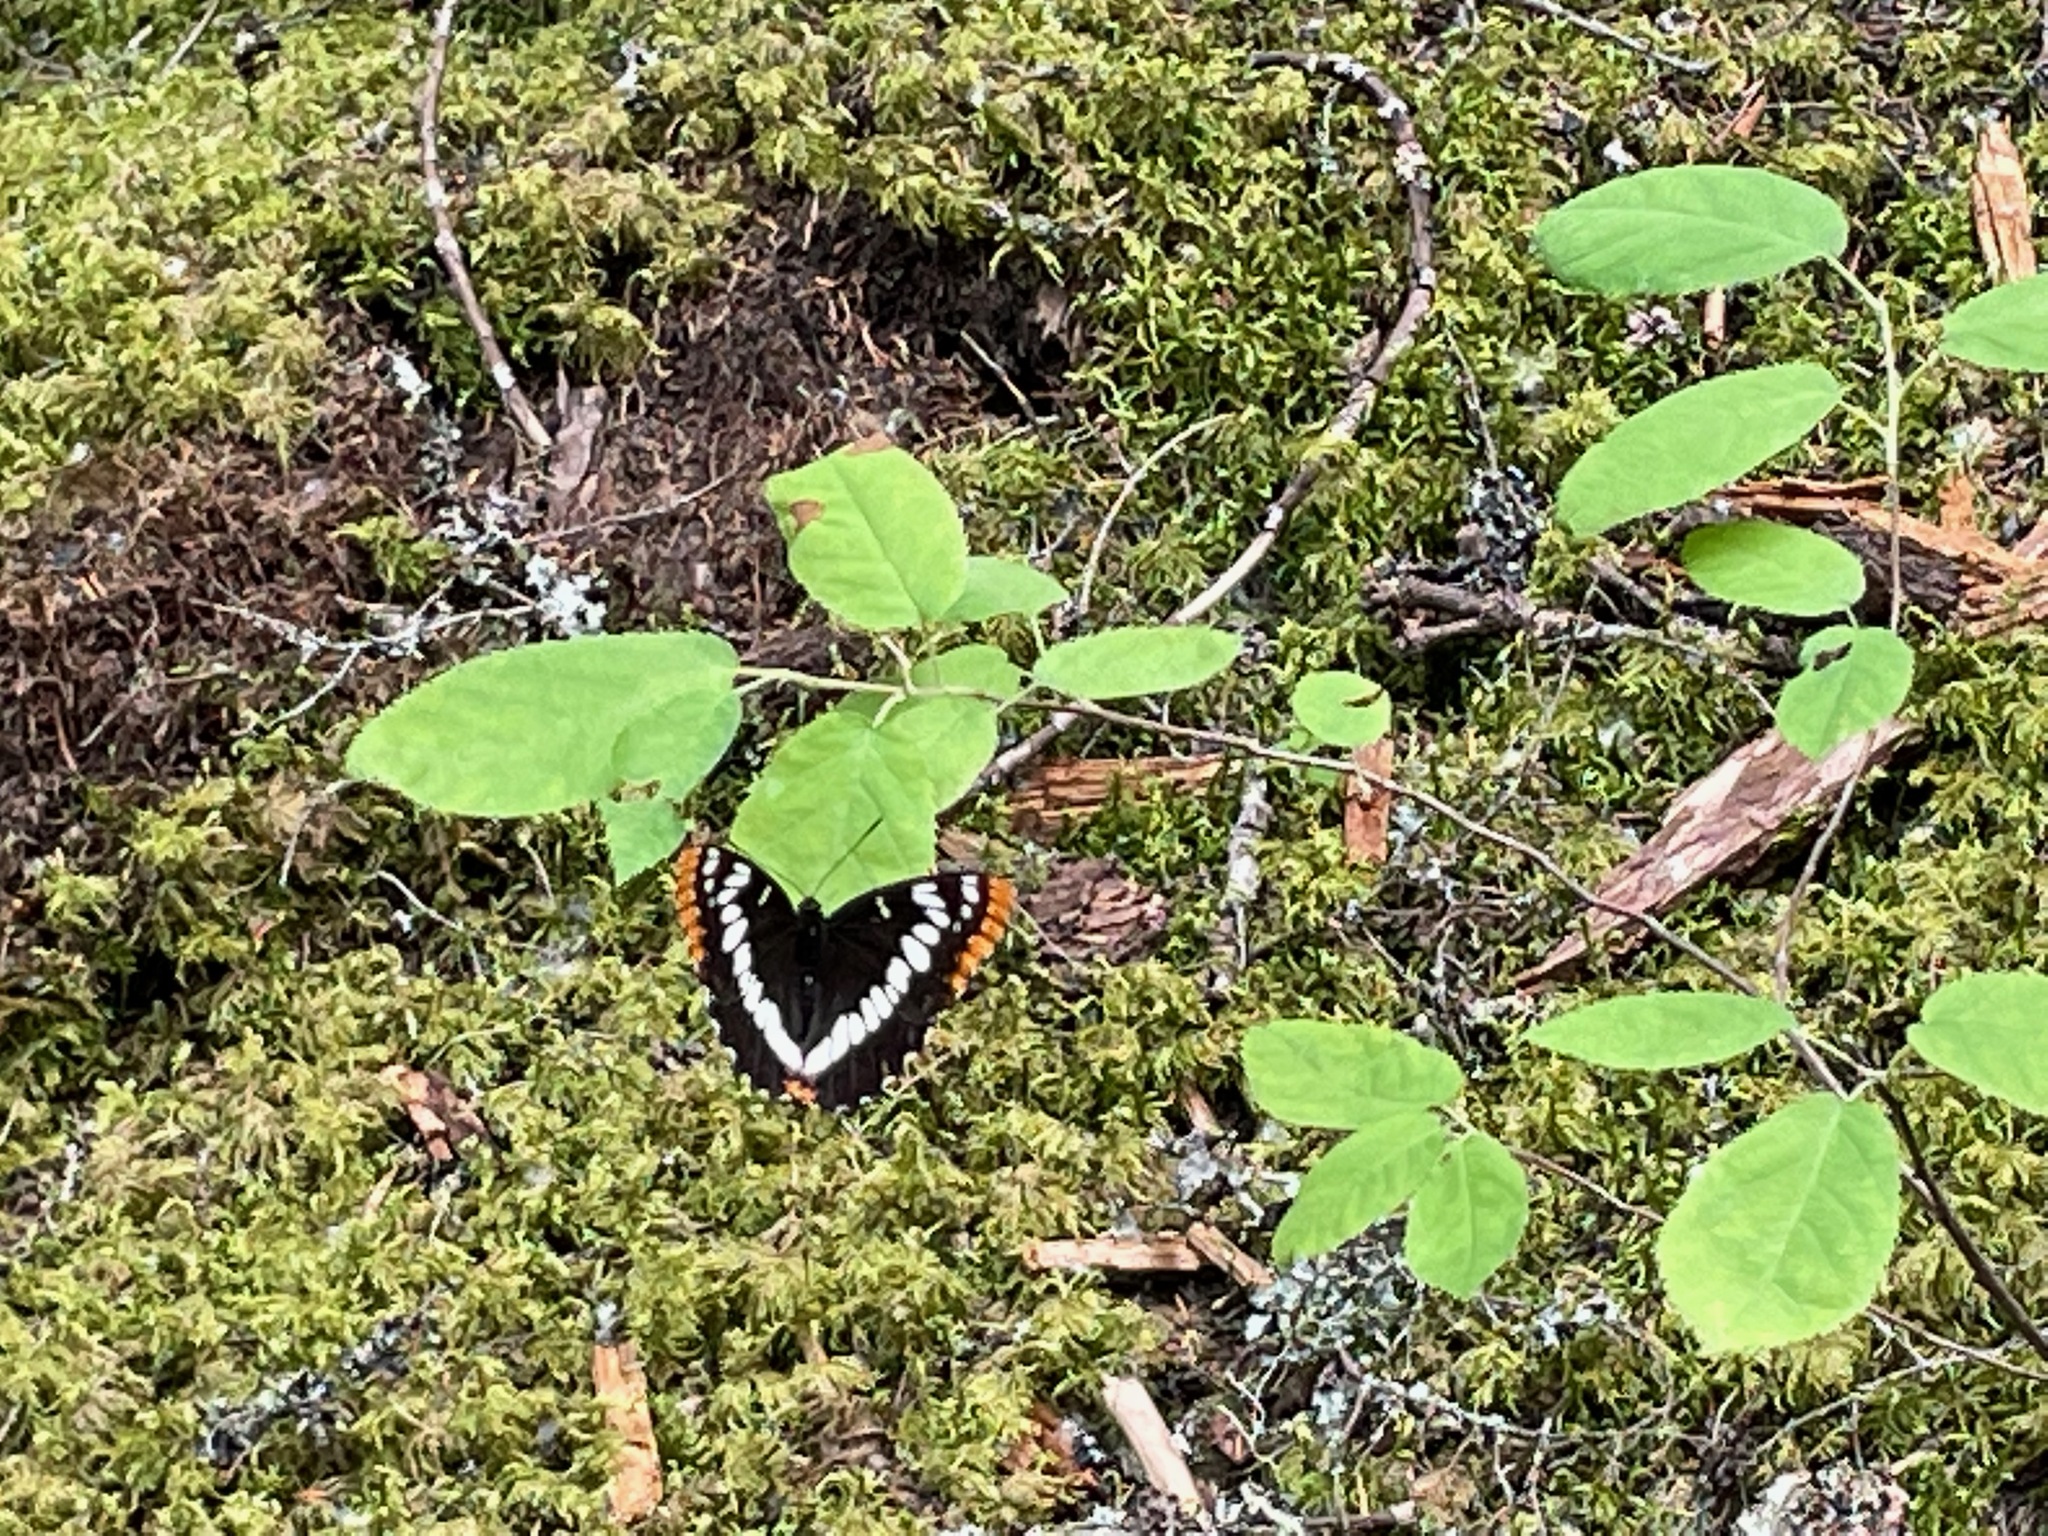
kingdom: Animalia
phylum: Arthropoda
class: Insecta
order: Lepidoptera
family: Nymphalidae
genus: Limenitis
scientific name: Limenitis lorquini
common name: Lorquin's admiral
